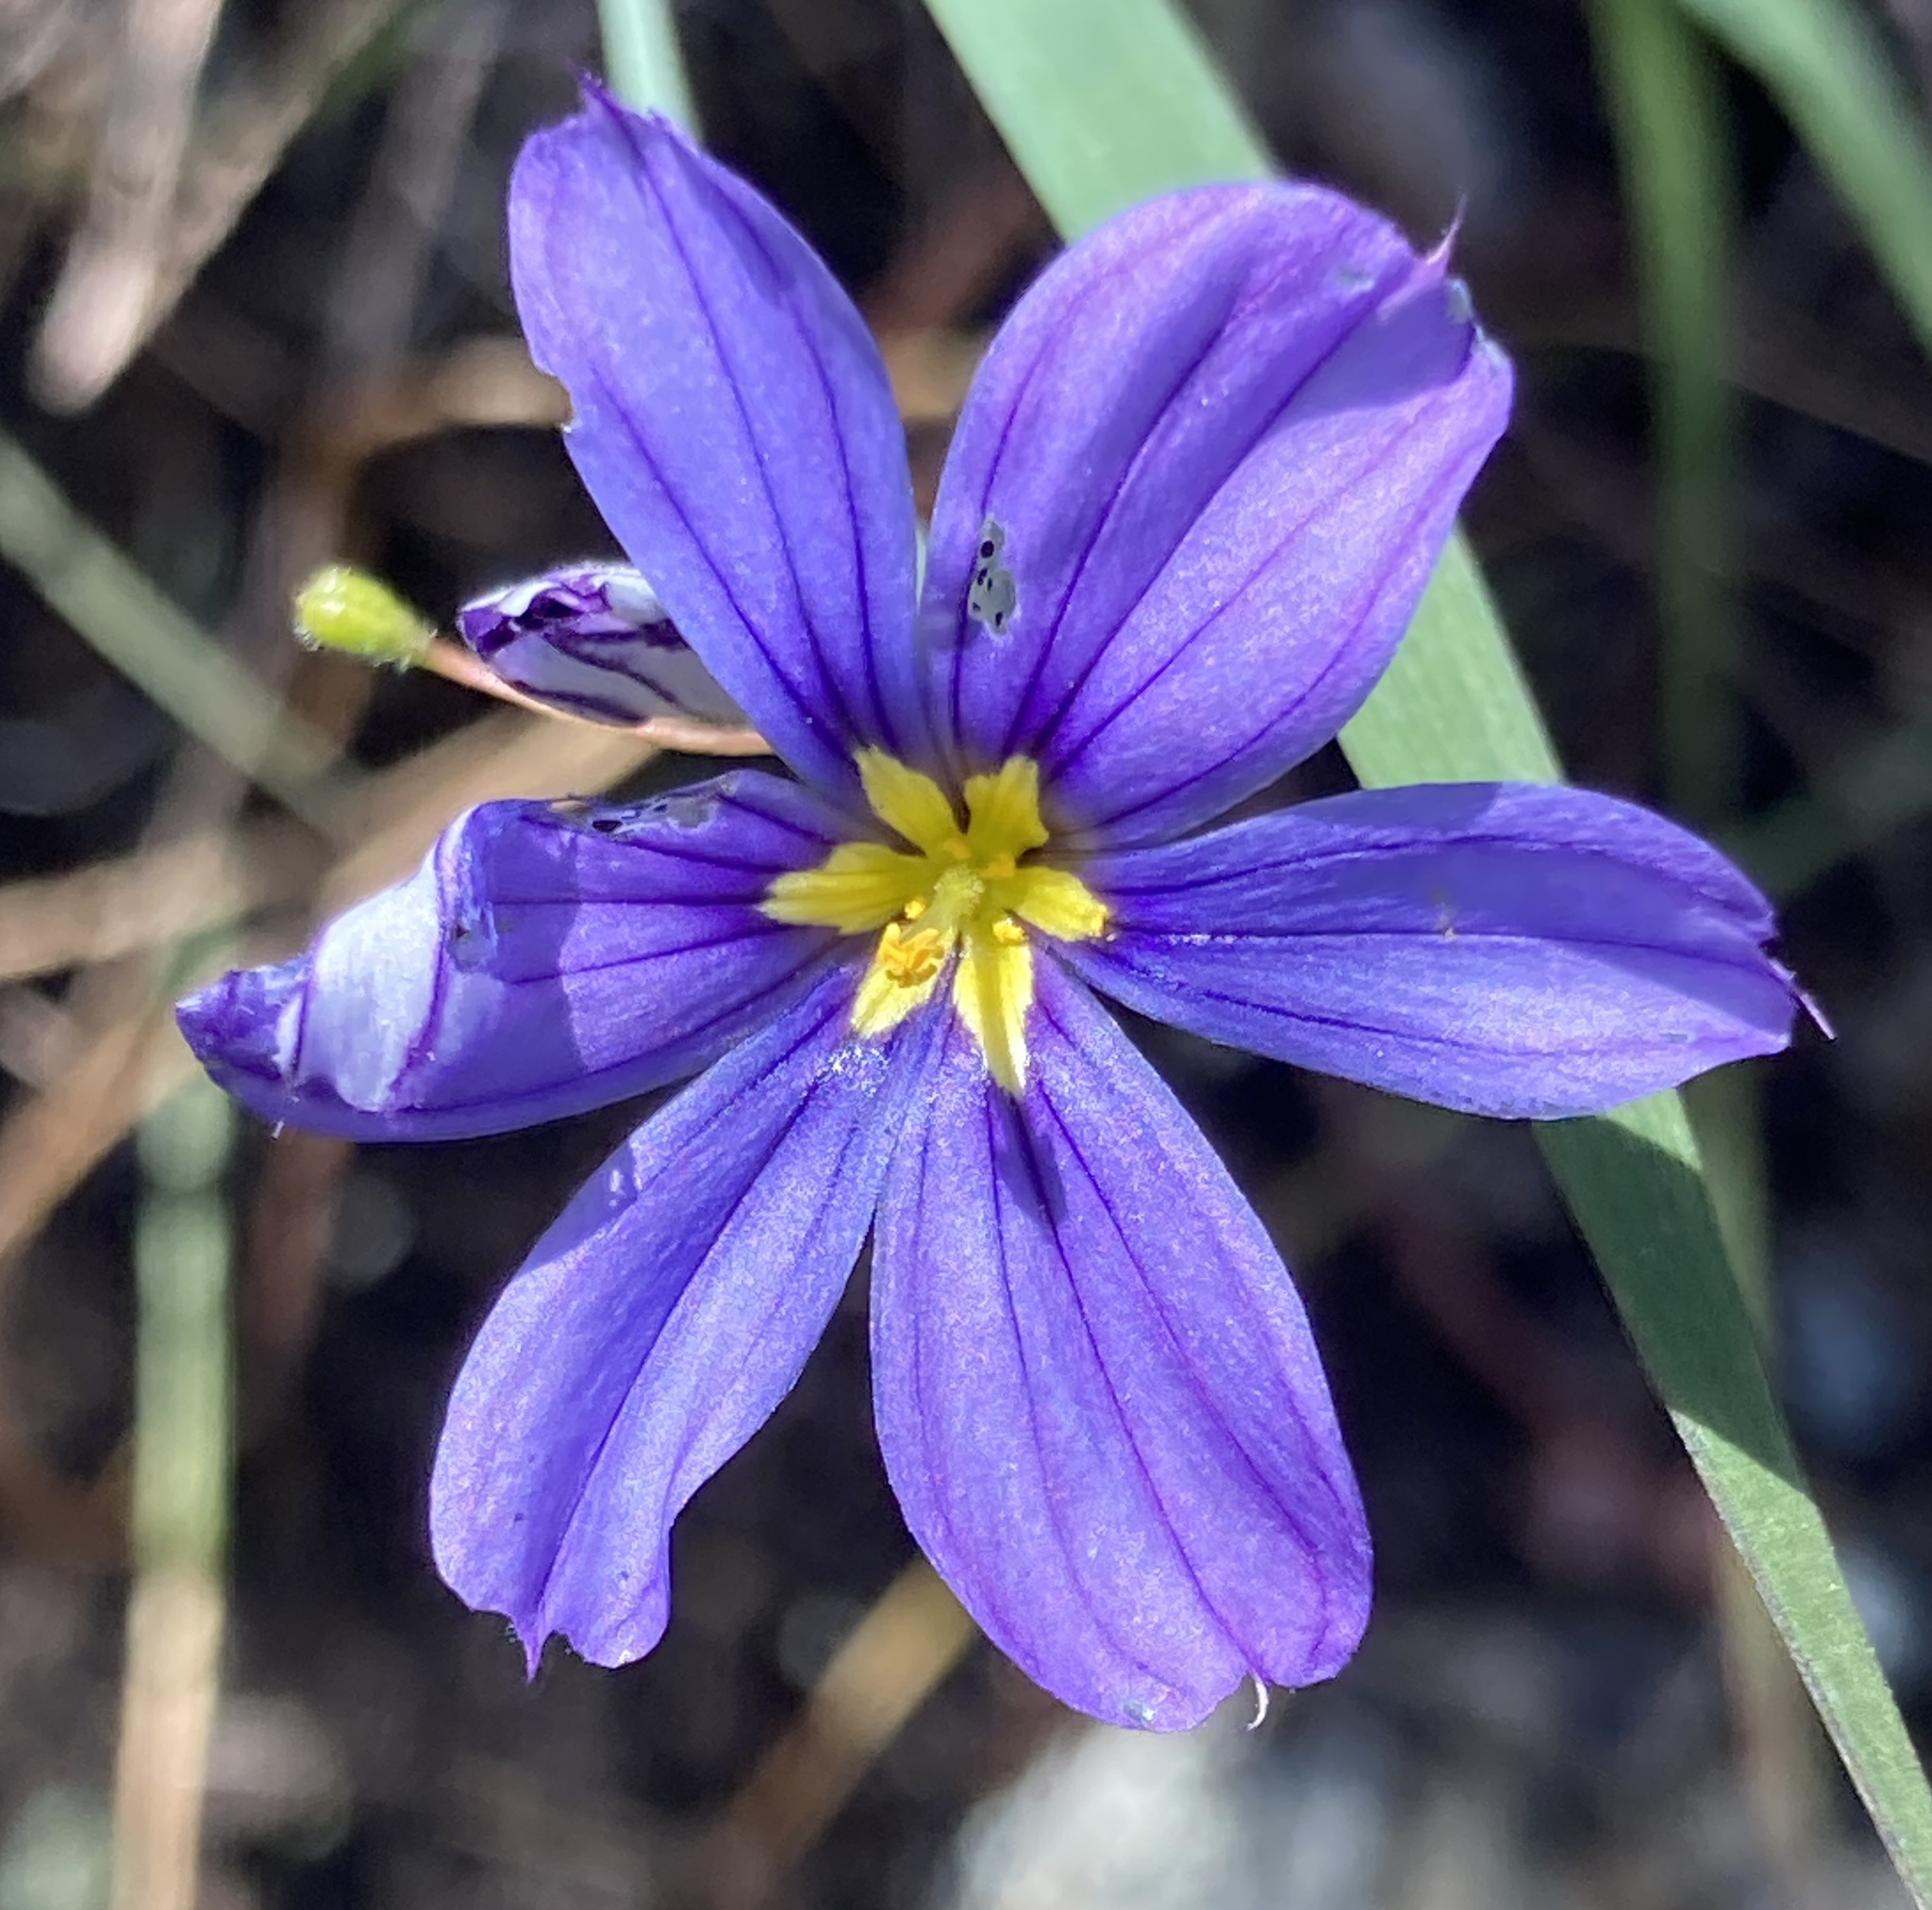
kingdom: Plantae
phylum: Tracheophyta
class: Liliopsida
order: Asparagales
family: Iridaceae
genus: Sisyrinchium
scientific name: Sisyrinchium bellum
